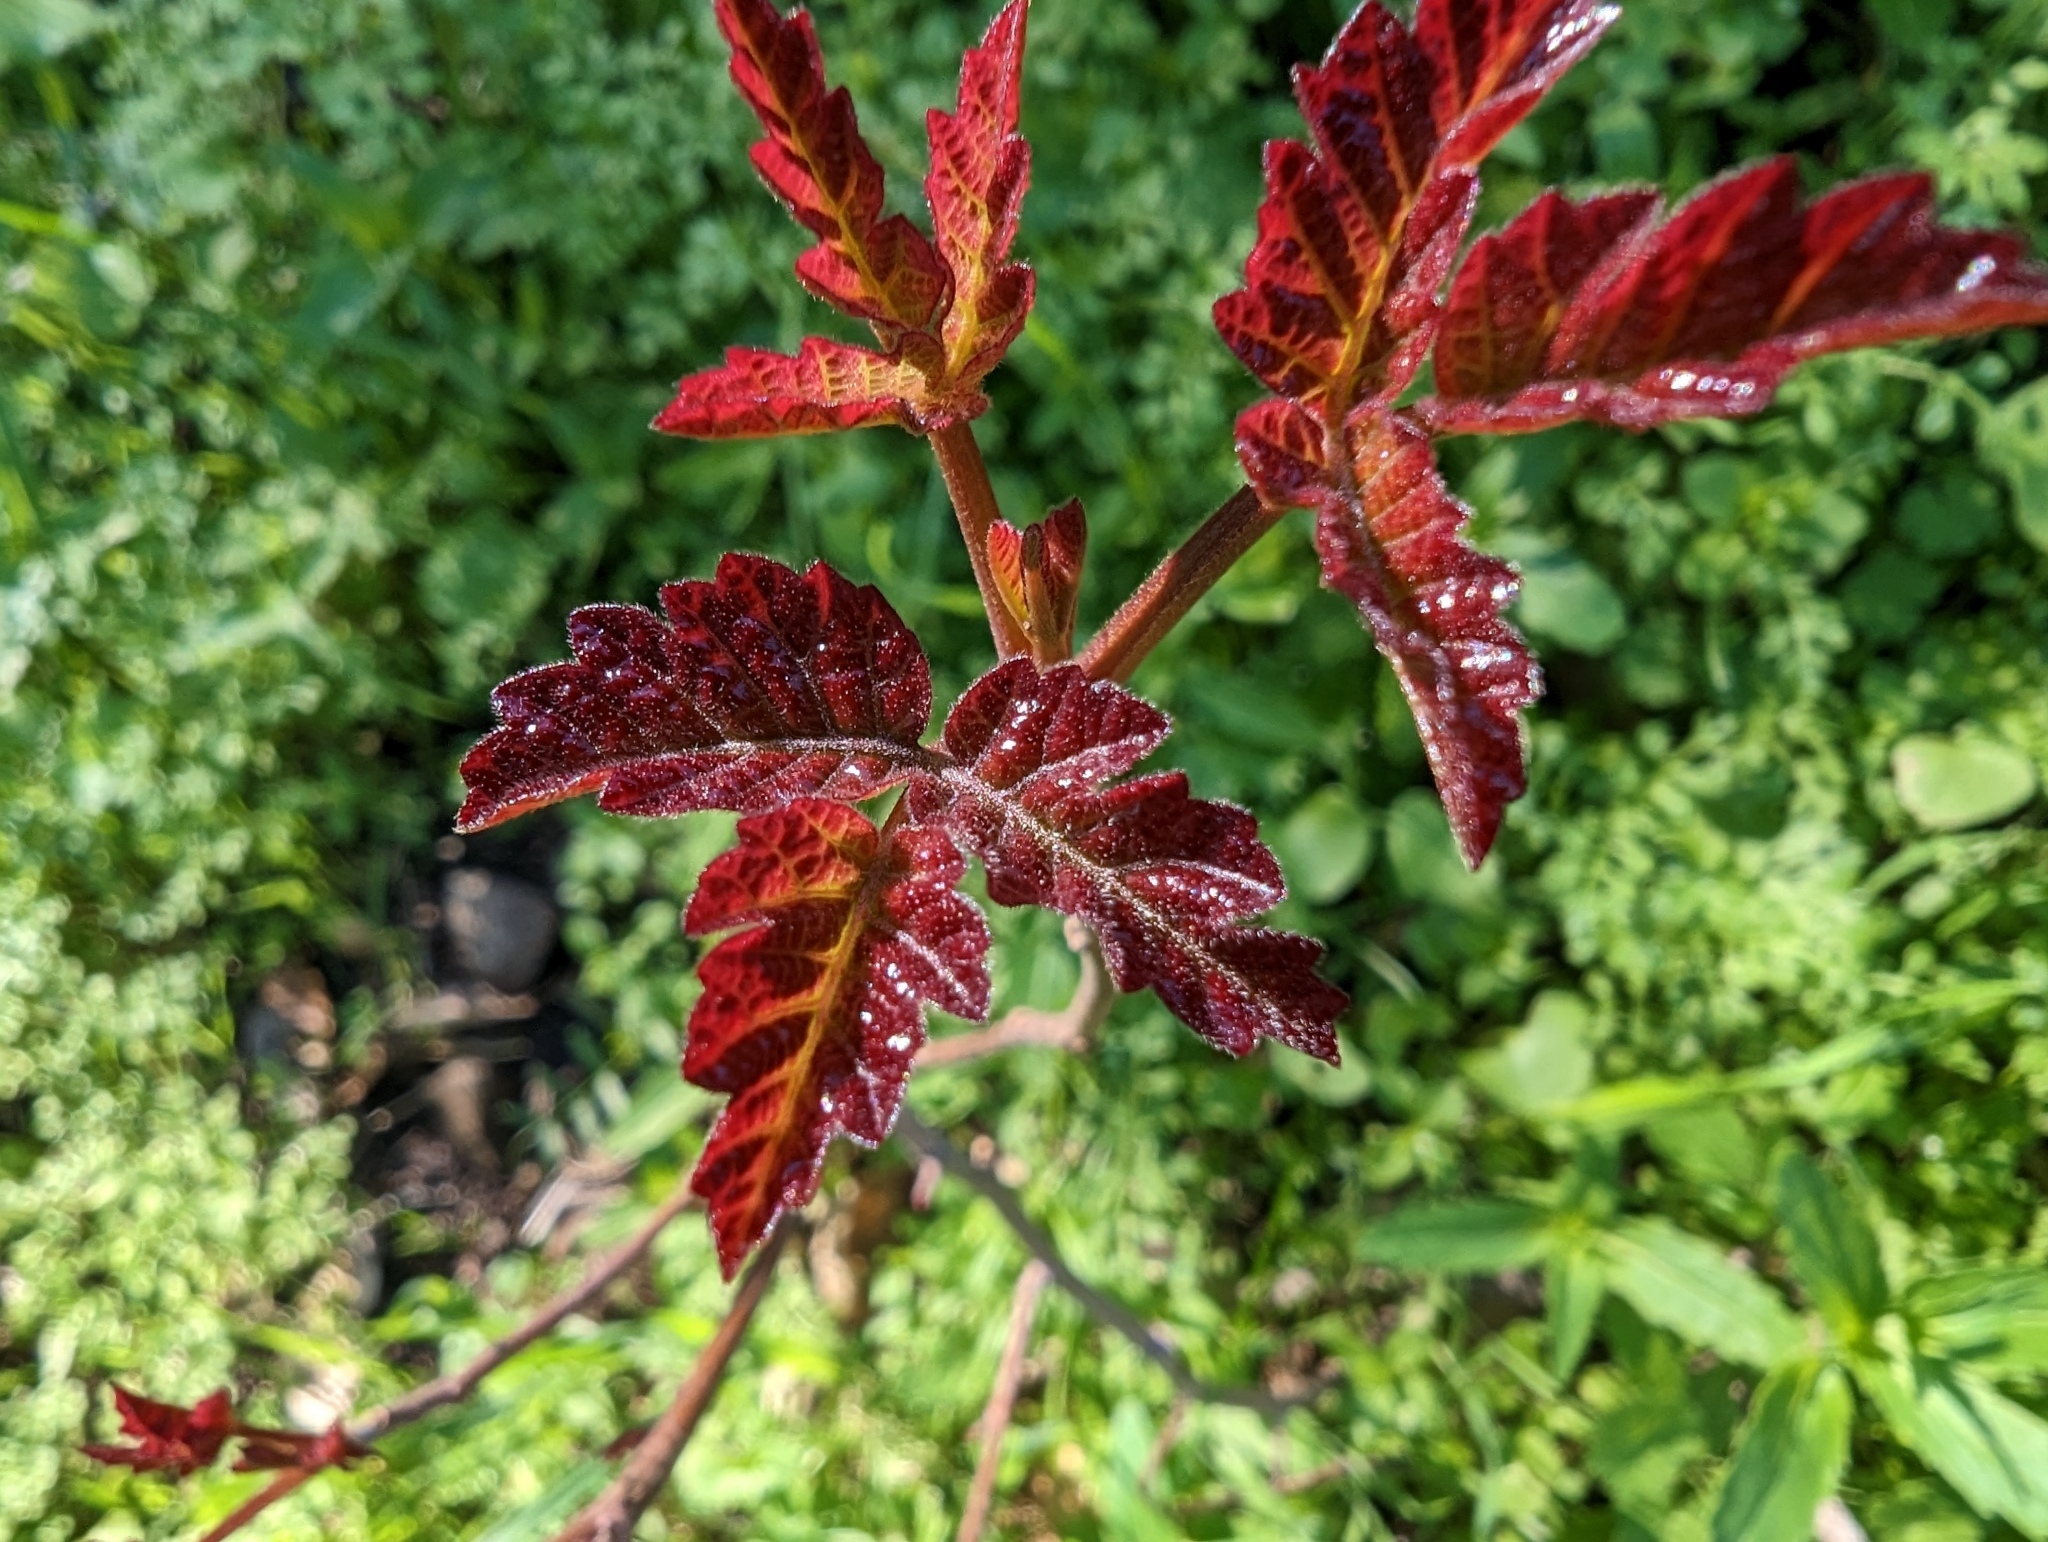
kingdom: Plantae
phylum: Tracheophyta
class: Magnoliopsida
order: Sapindales
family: Anacardiaceae
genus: Toxicodendron
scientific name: Toxicodendron diversilobum
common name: Pacific poison-oak
